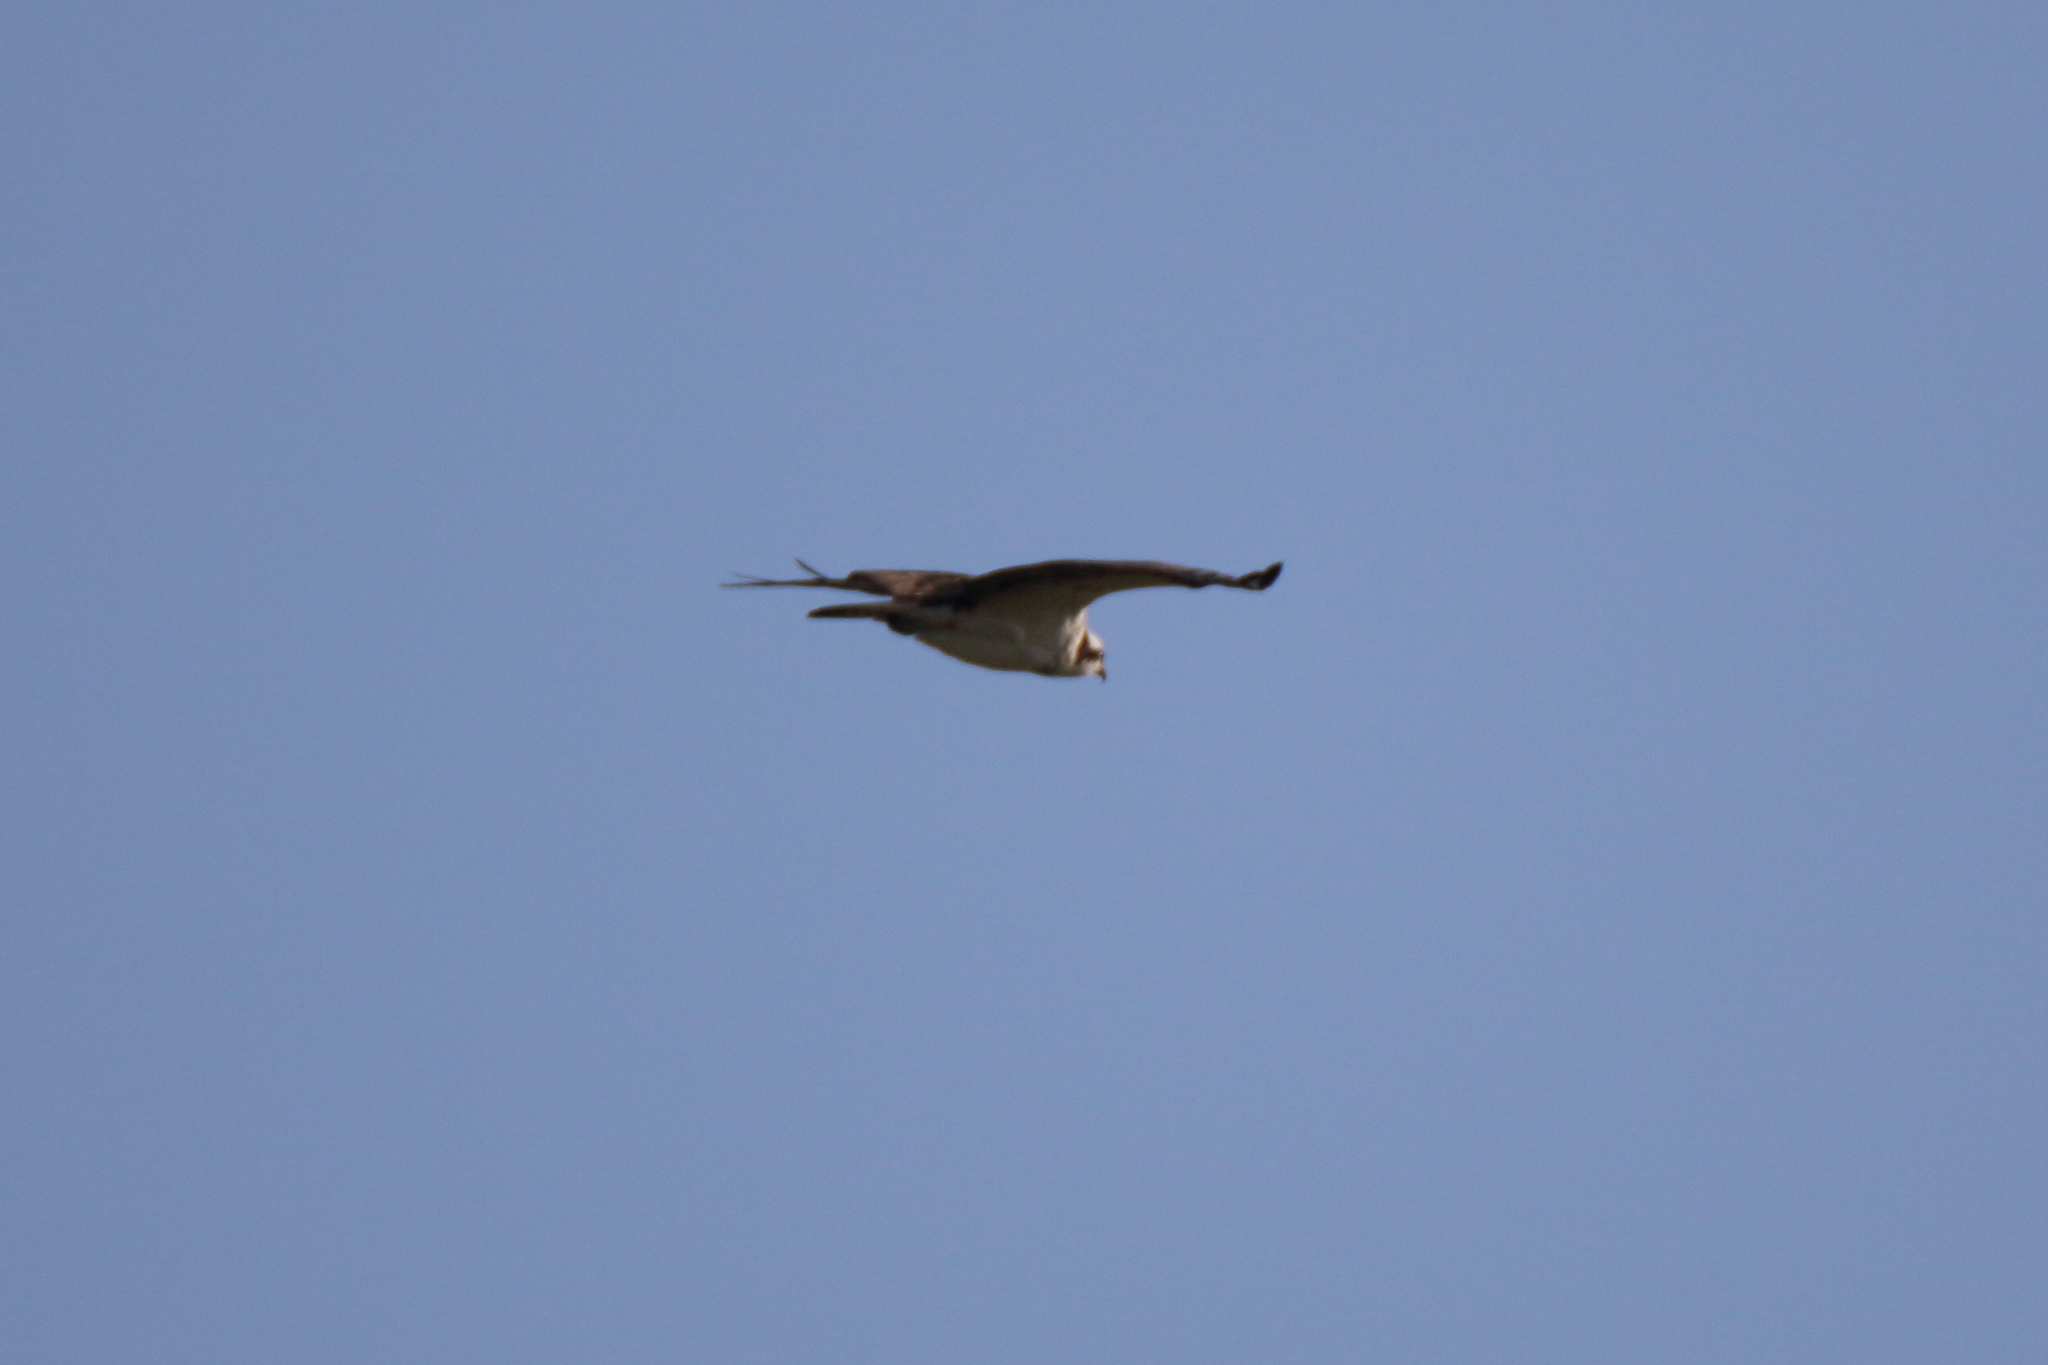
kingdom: Animalia
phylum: Chordata
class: Aves
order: Accipitriformes
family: Pandionidae
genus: Pandion
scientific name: Pandion haliaetus
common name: Osprey
